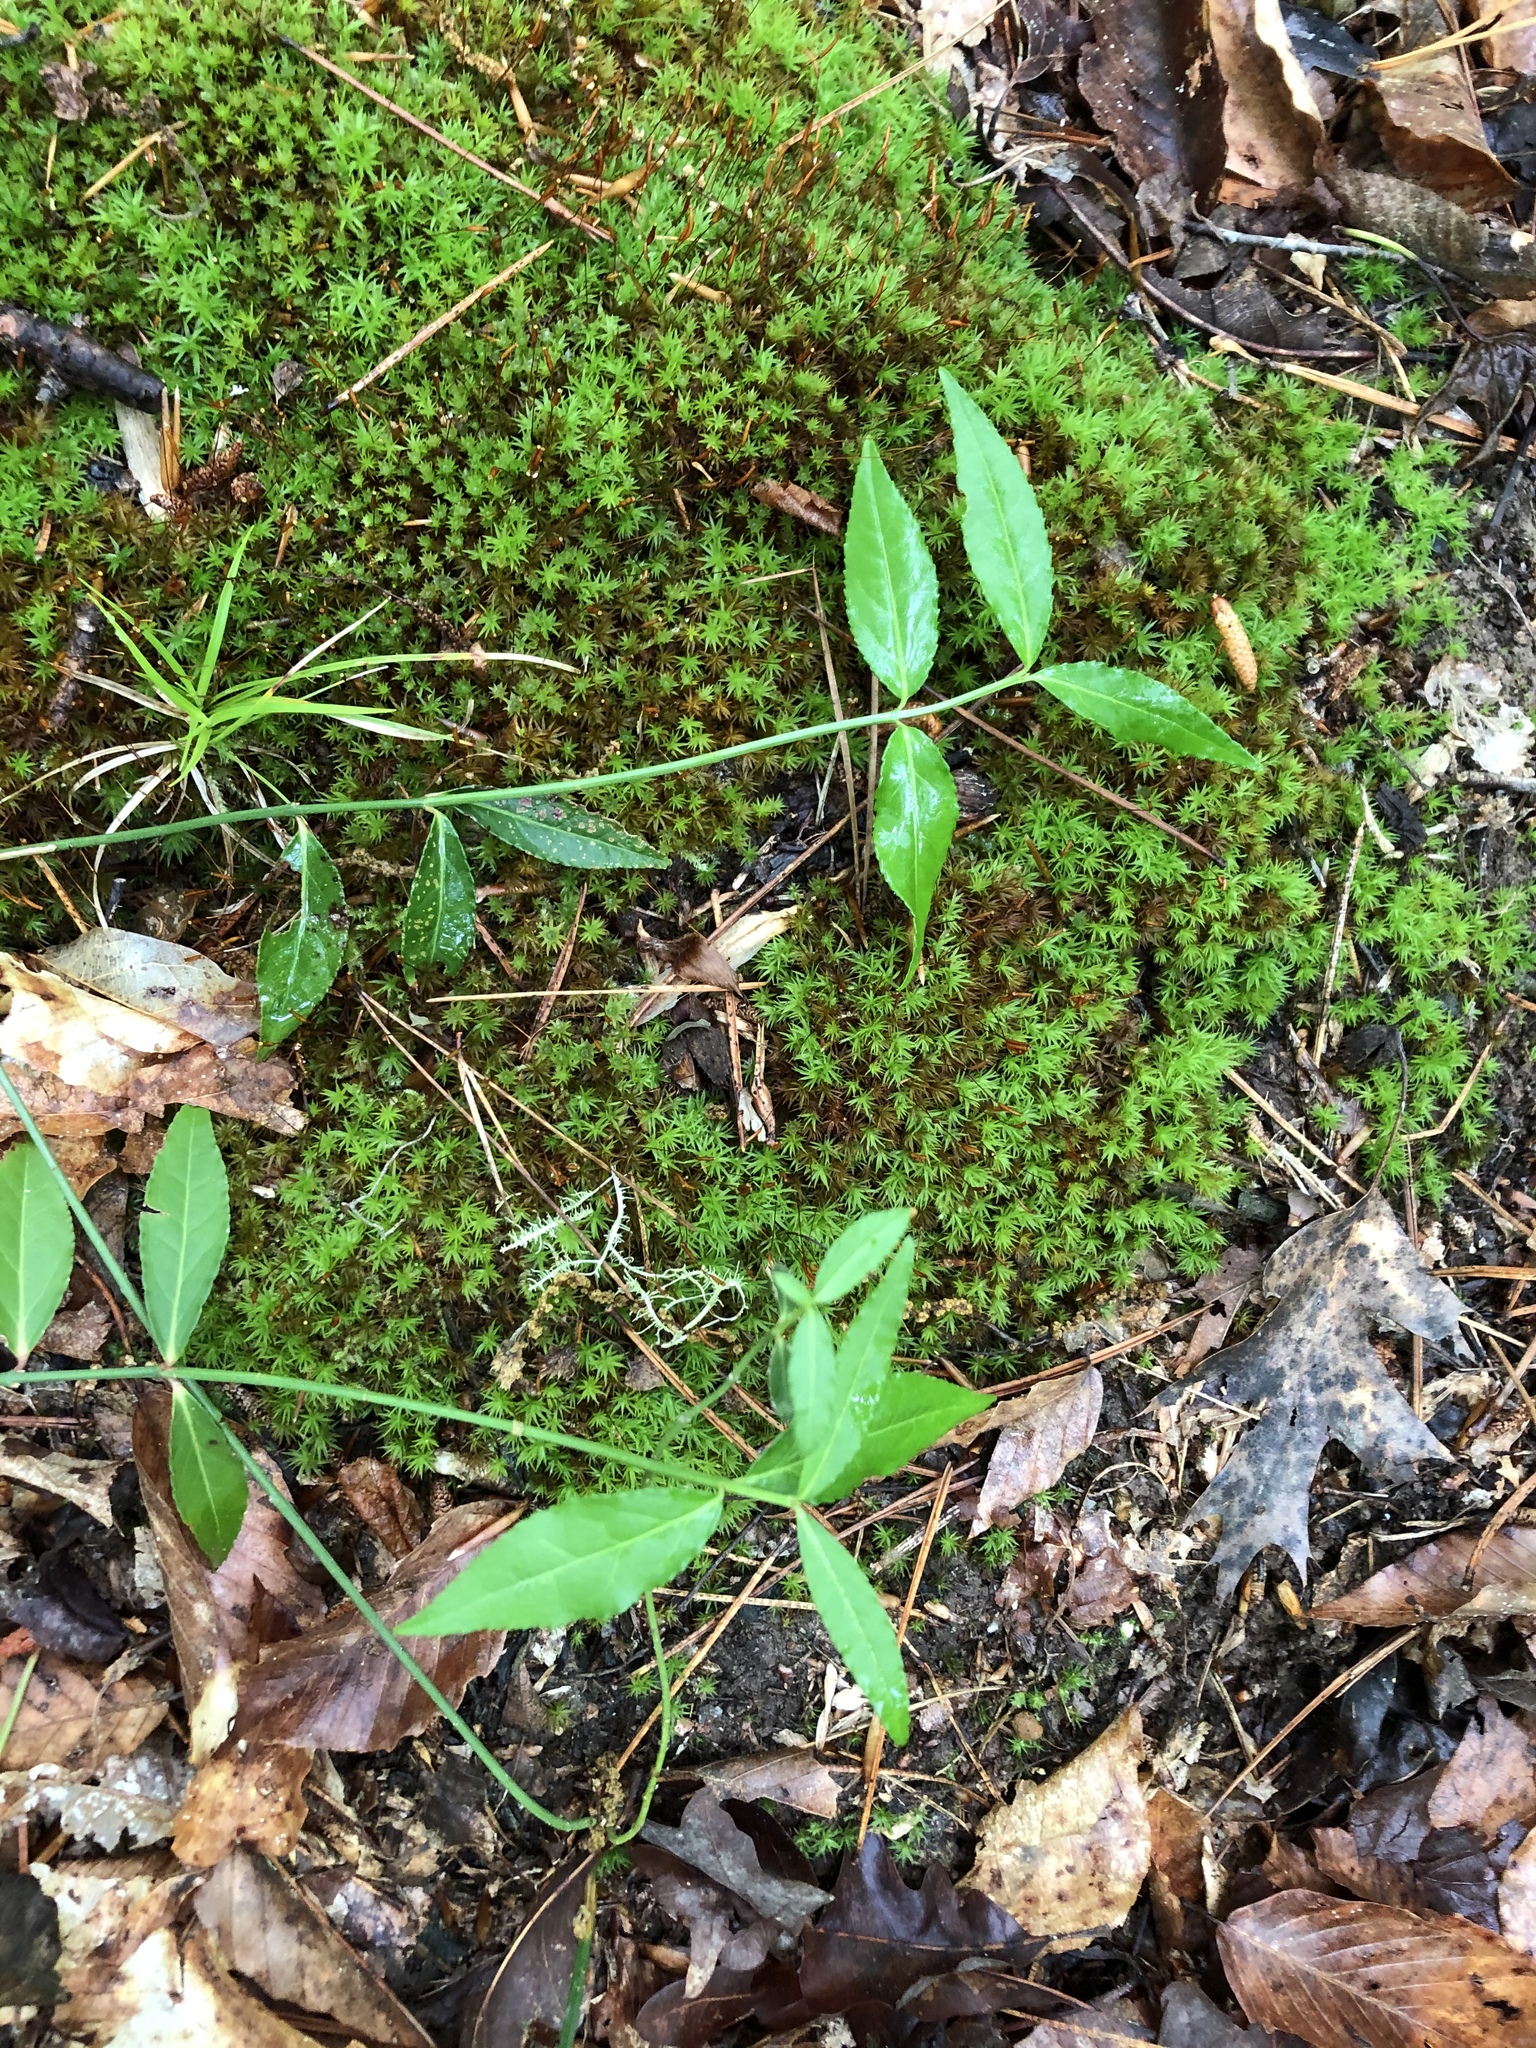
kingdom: Plantae
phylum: Tracheophyta
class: Magnoliopsida
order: Celastrales
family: Celastraceae
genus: Euonymus
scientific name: Euonymus americanus
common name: Bursting-heart
